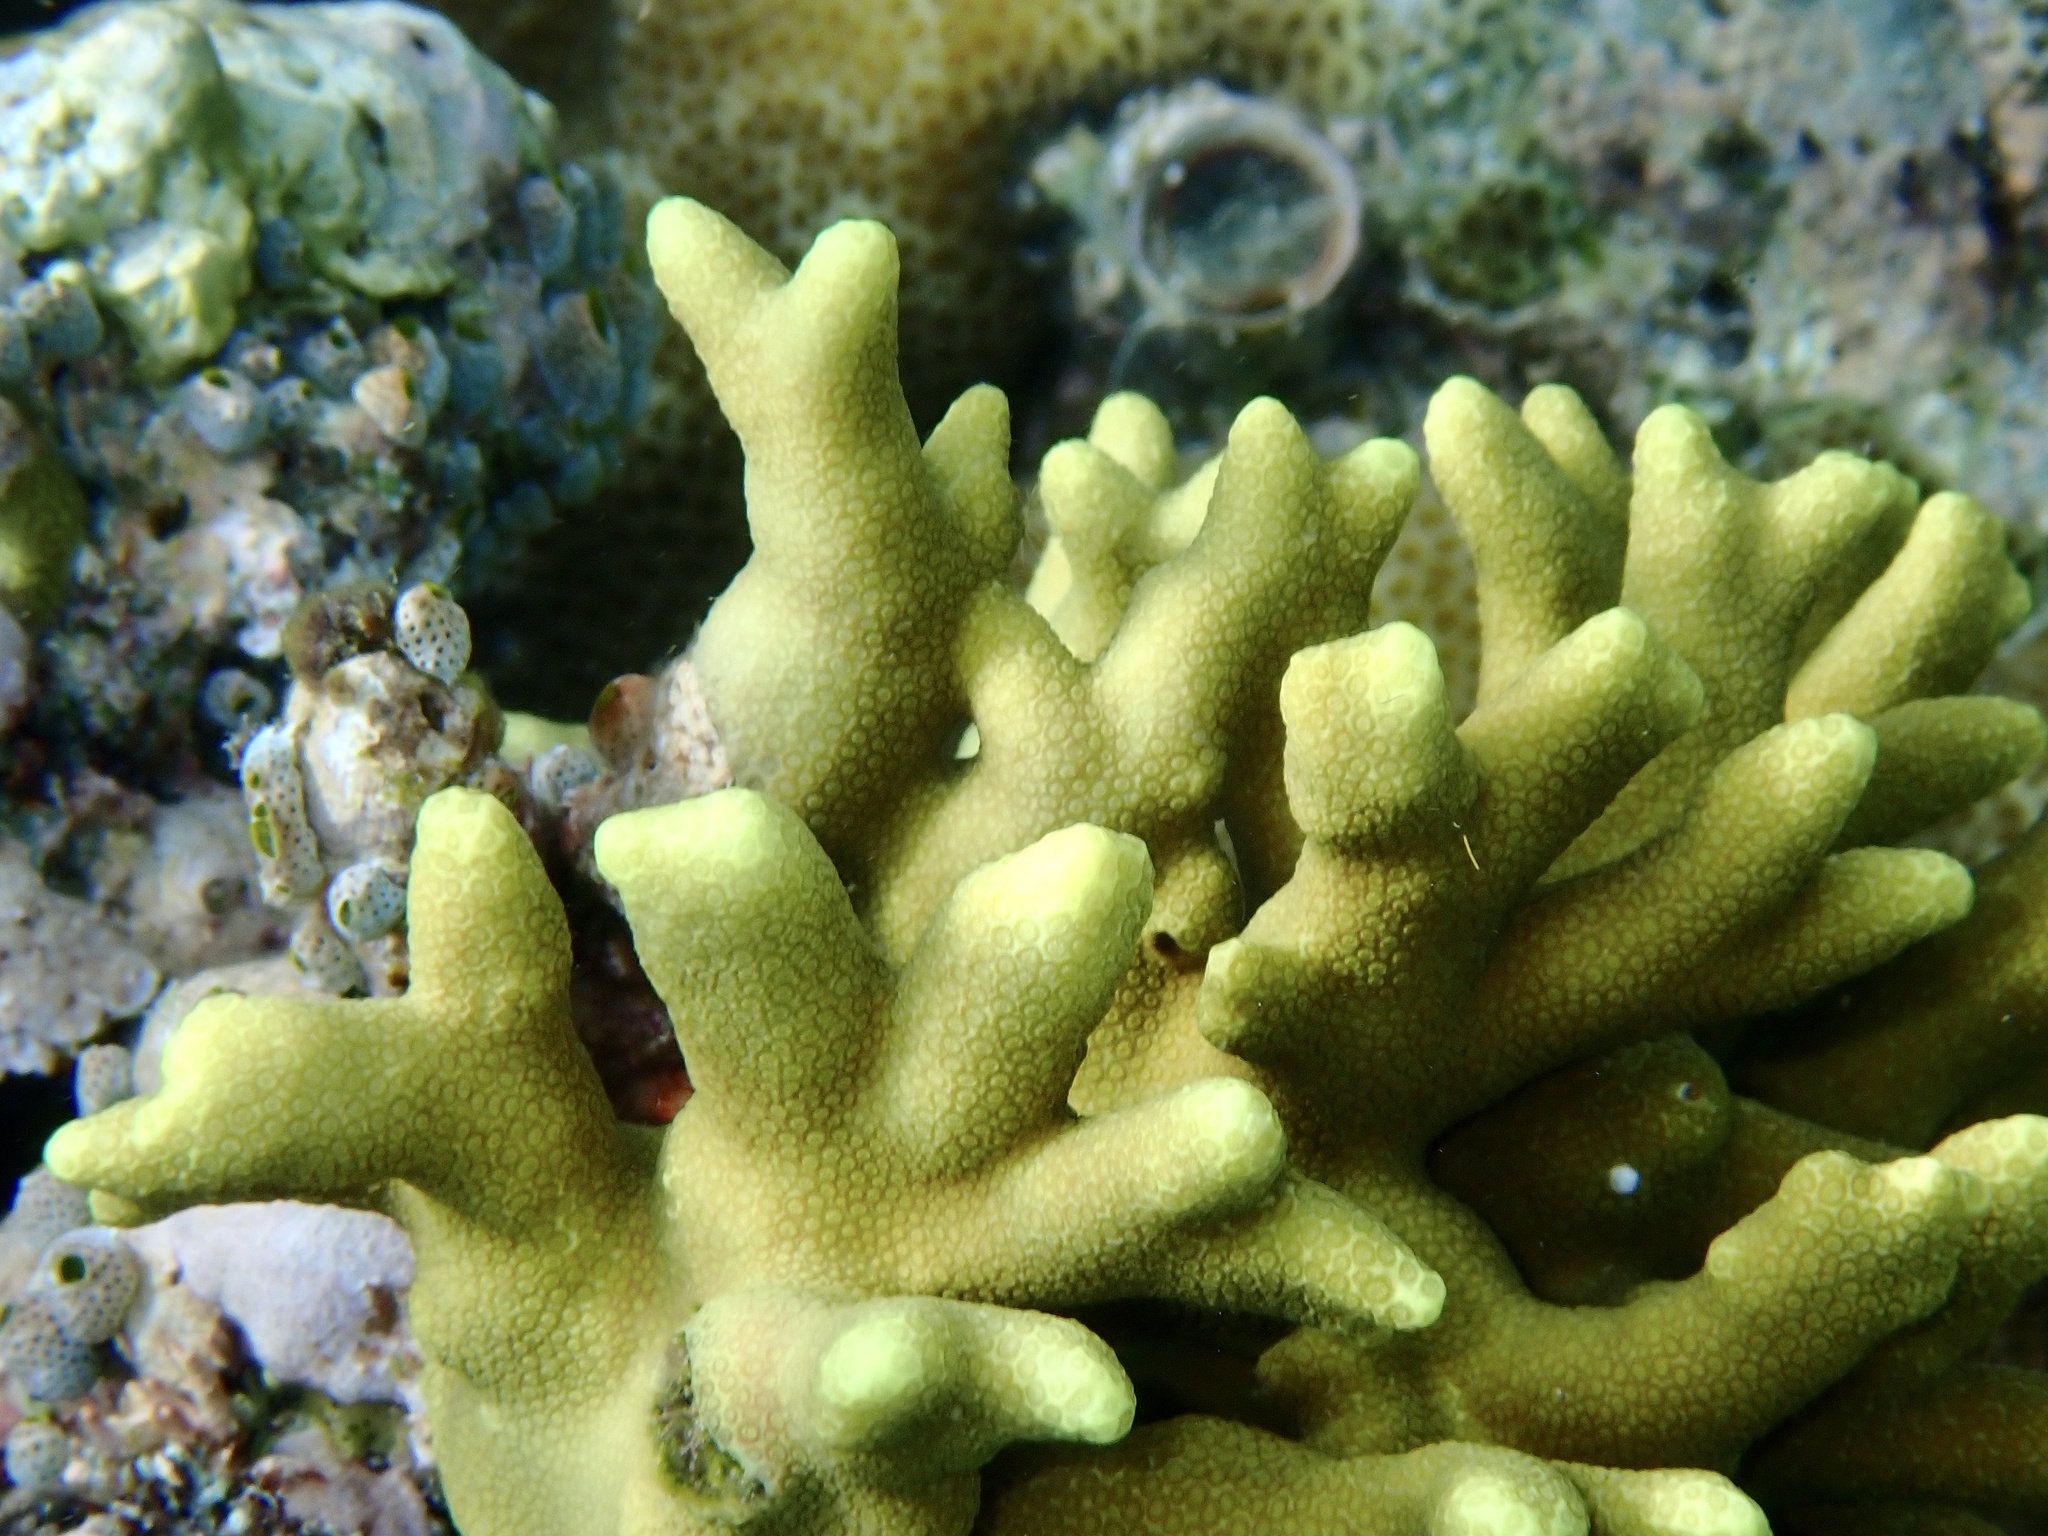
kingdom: Animalia
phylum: Cnidaria
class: Anthozoa
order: Scleractinia
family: Poritidae
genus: Porites
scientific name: Porites cylindrica
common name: Hump coral
